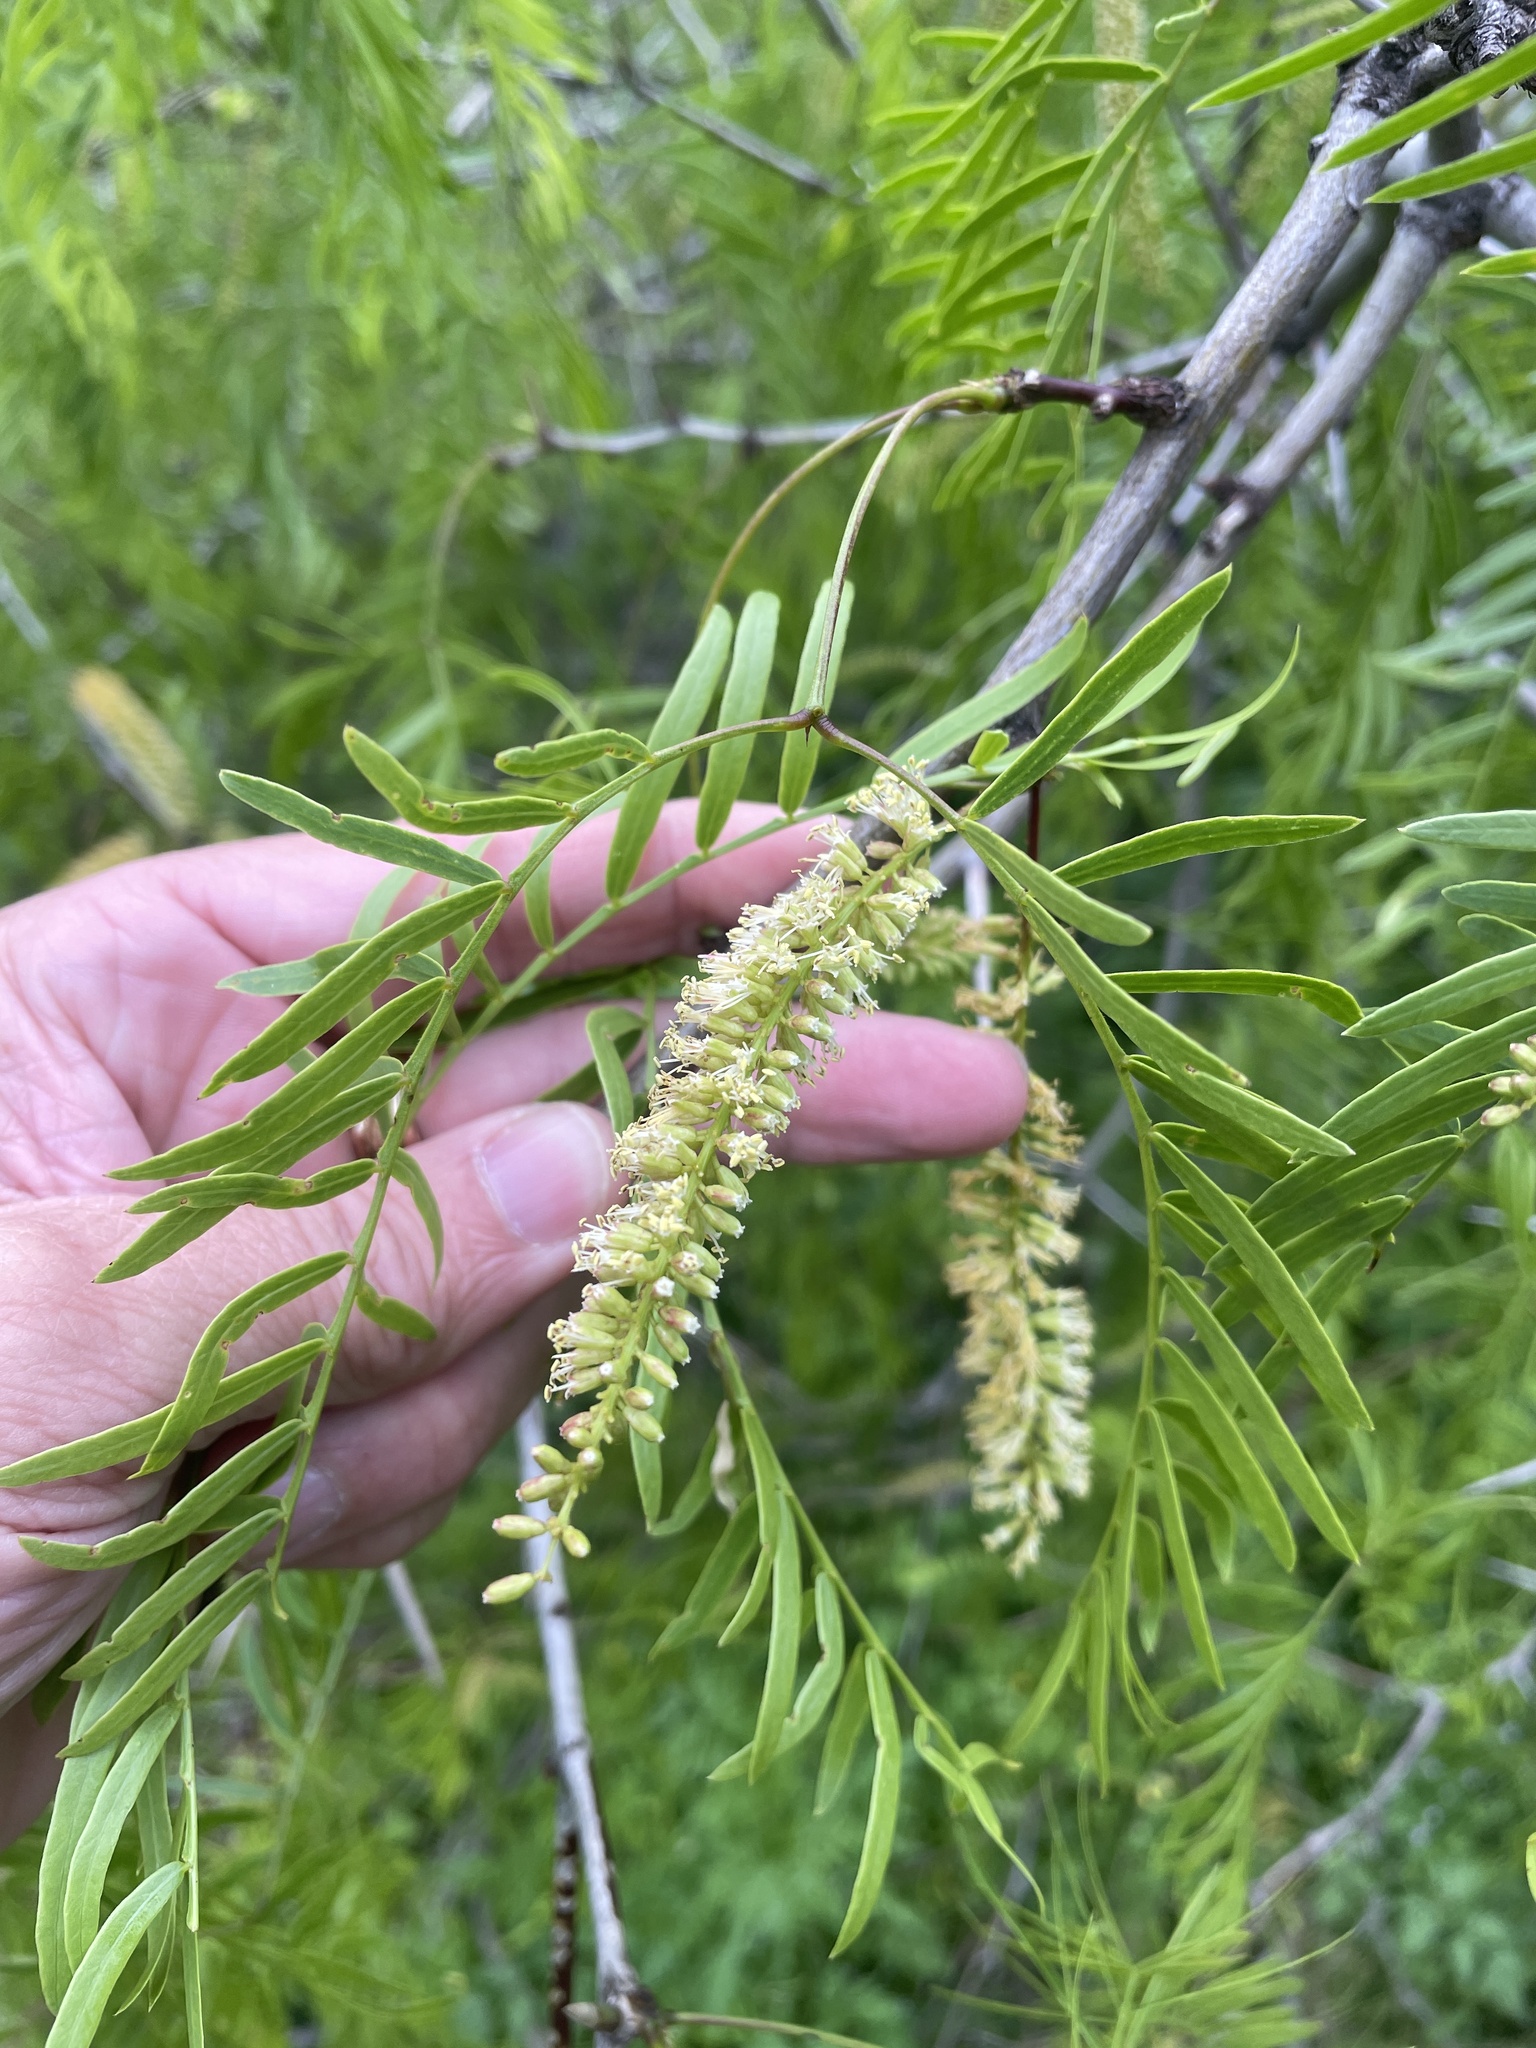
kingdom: Plantae
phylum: Tracheophyta
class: Magnoliopsida
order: Fabales
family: Fabaceae
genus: Prosopis
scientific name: Prosopis glandulosa
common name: Honey mesquite
